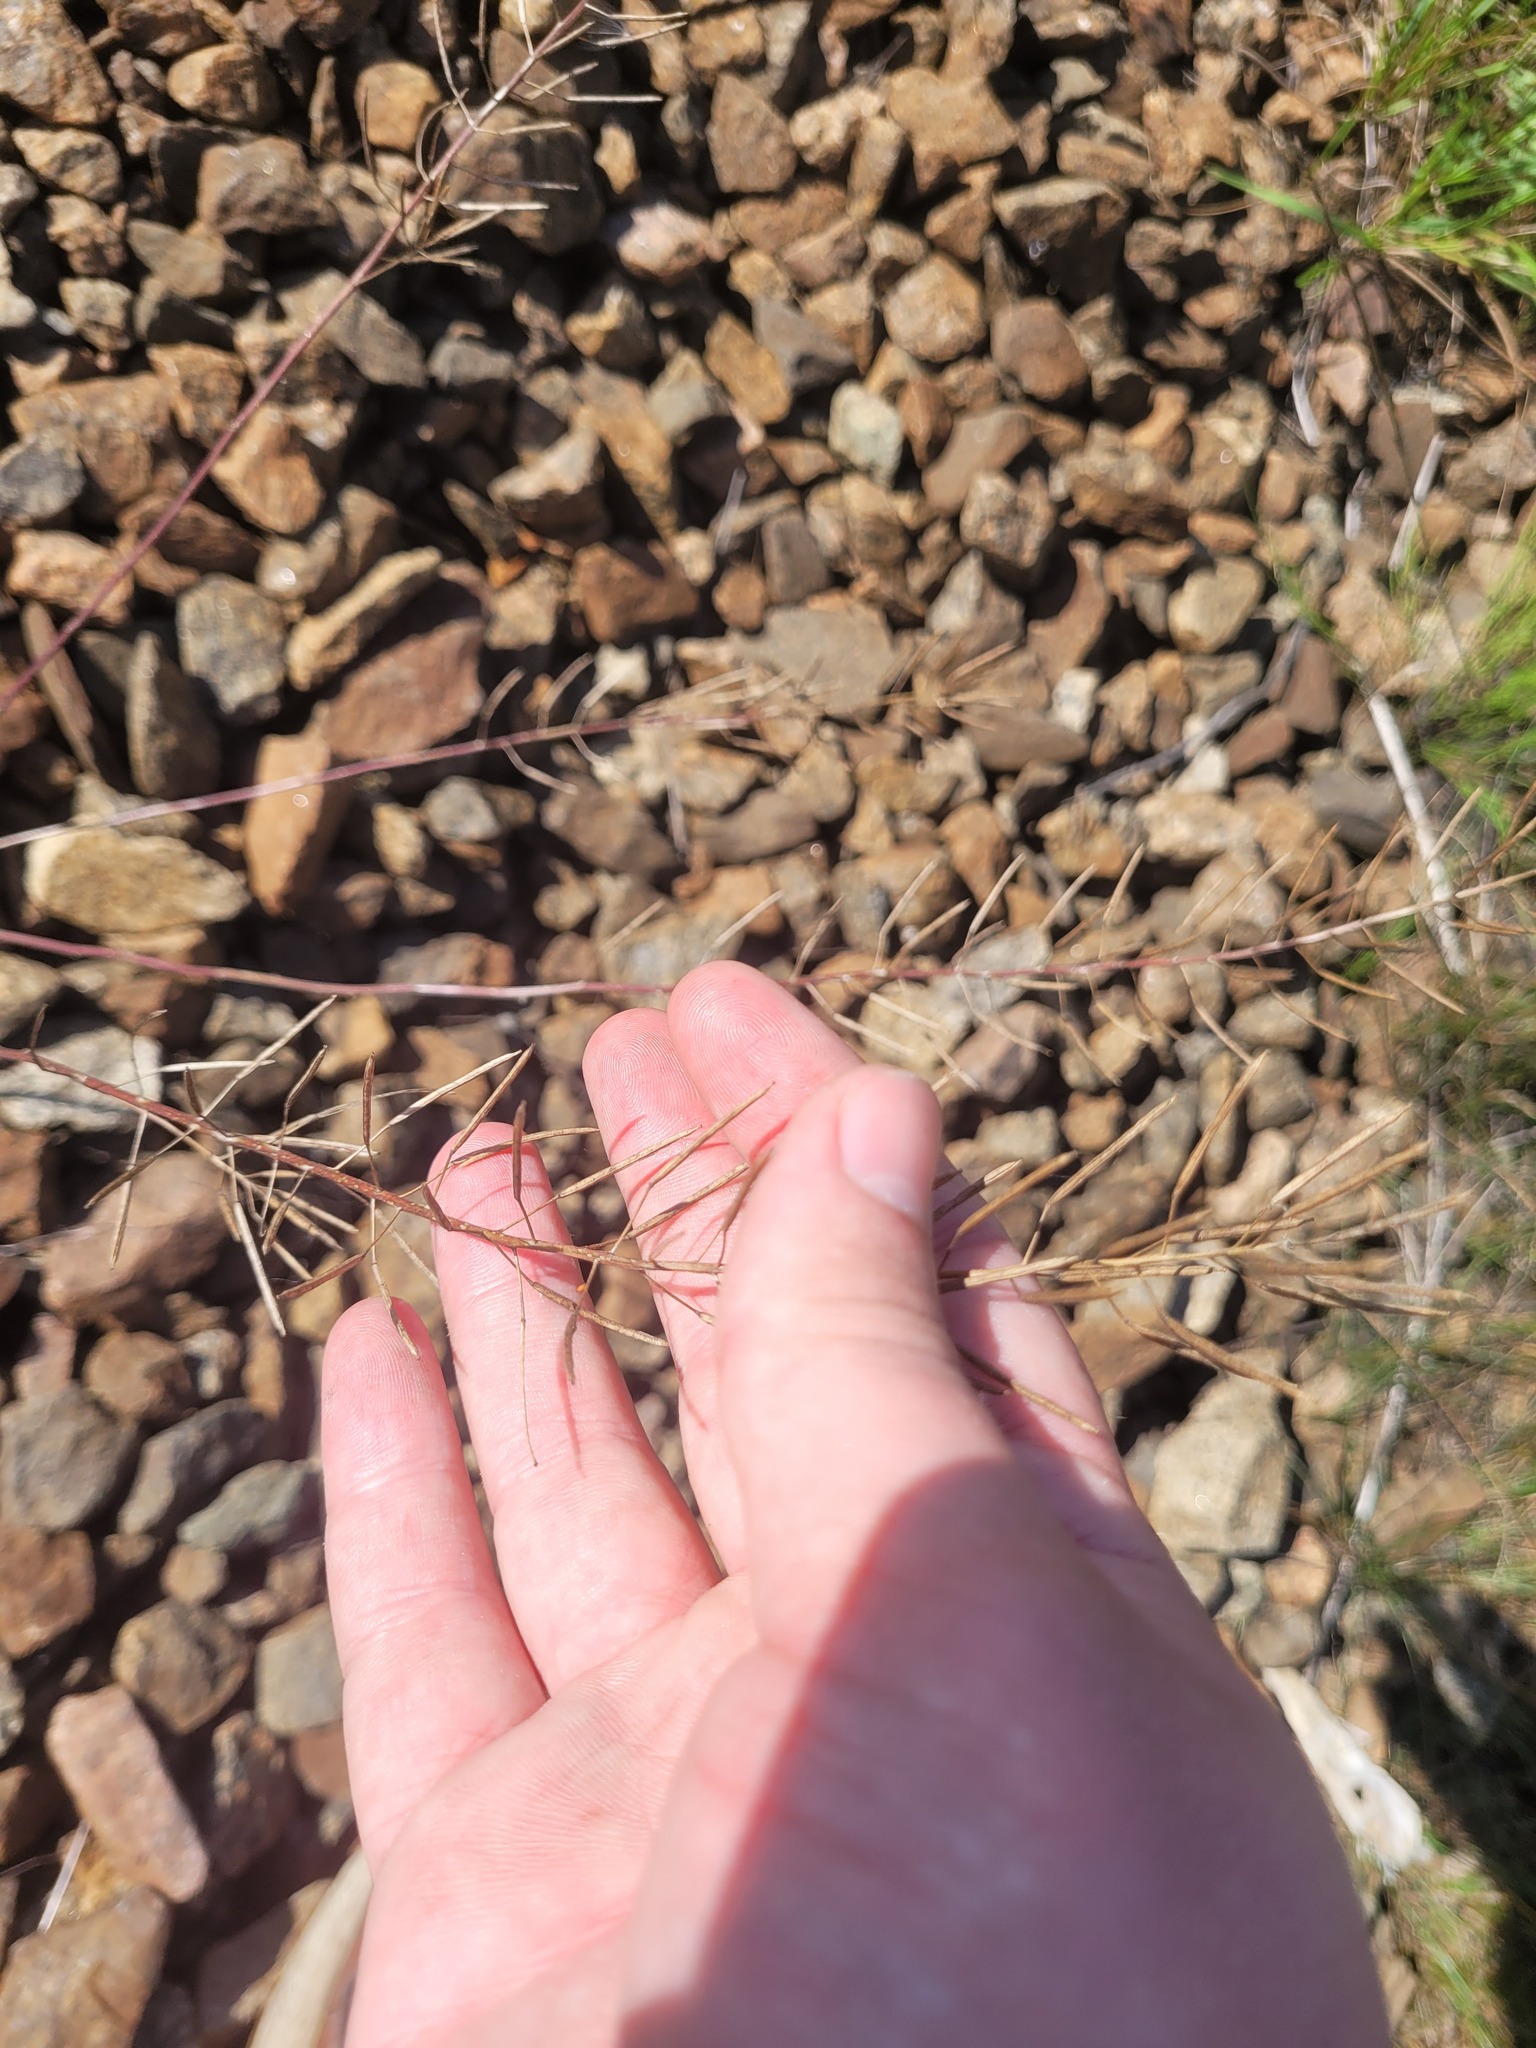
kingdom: Plantae
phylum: Tracheophyta
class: Magnoliopsida
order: Brassicales
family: Brassicaceae
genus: Erysimum
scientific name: Erysimum cheiranthoides
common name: Treacle mustard
